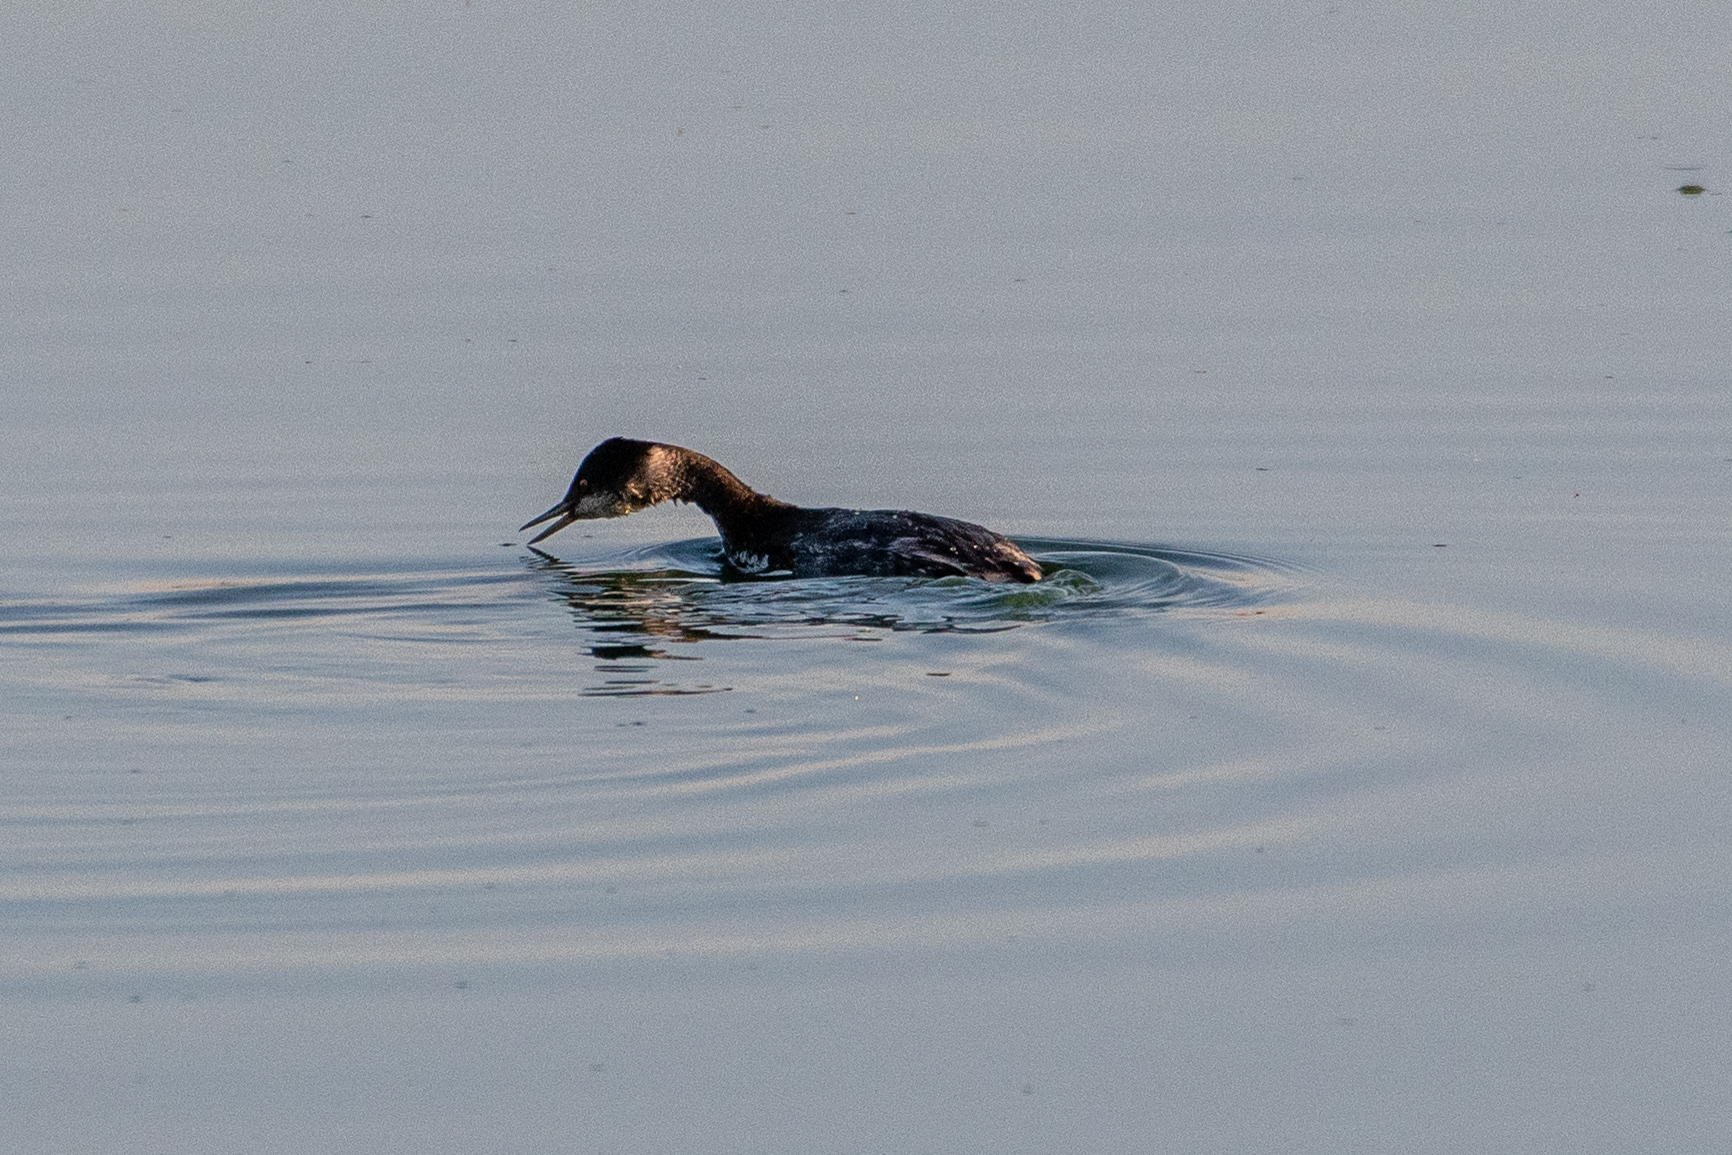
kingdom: Animalia
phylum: Chordata
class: Aves
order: Podicipediformes
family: Podicipedidae
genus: Podiceps
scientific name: Podiceps nigricollis
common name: Black-necked grebe
